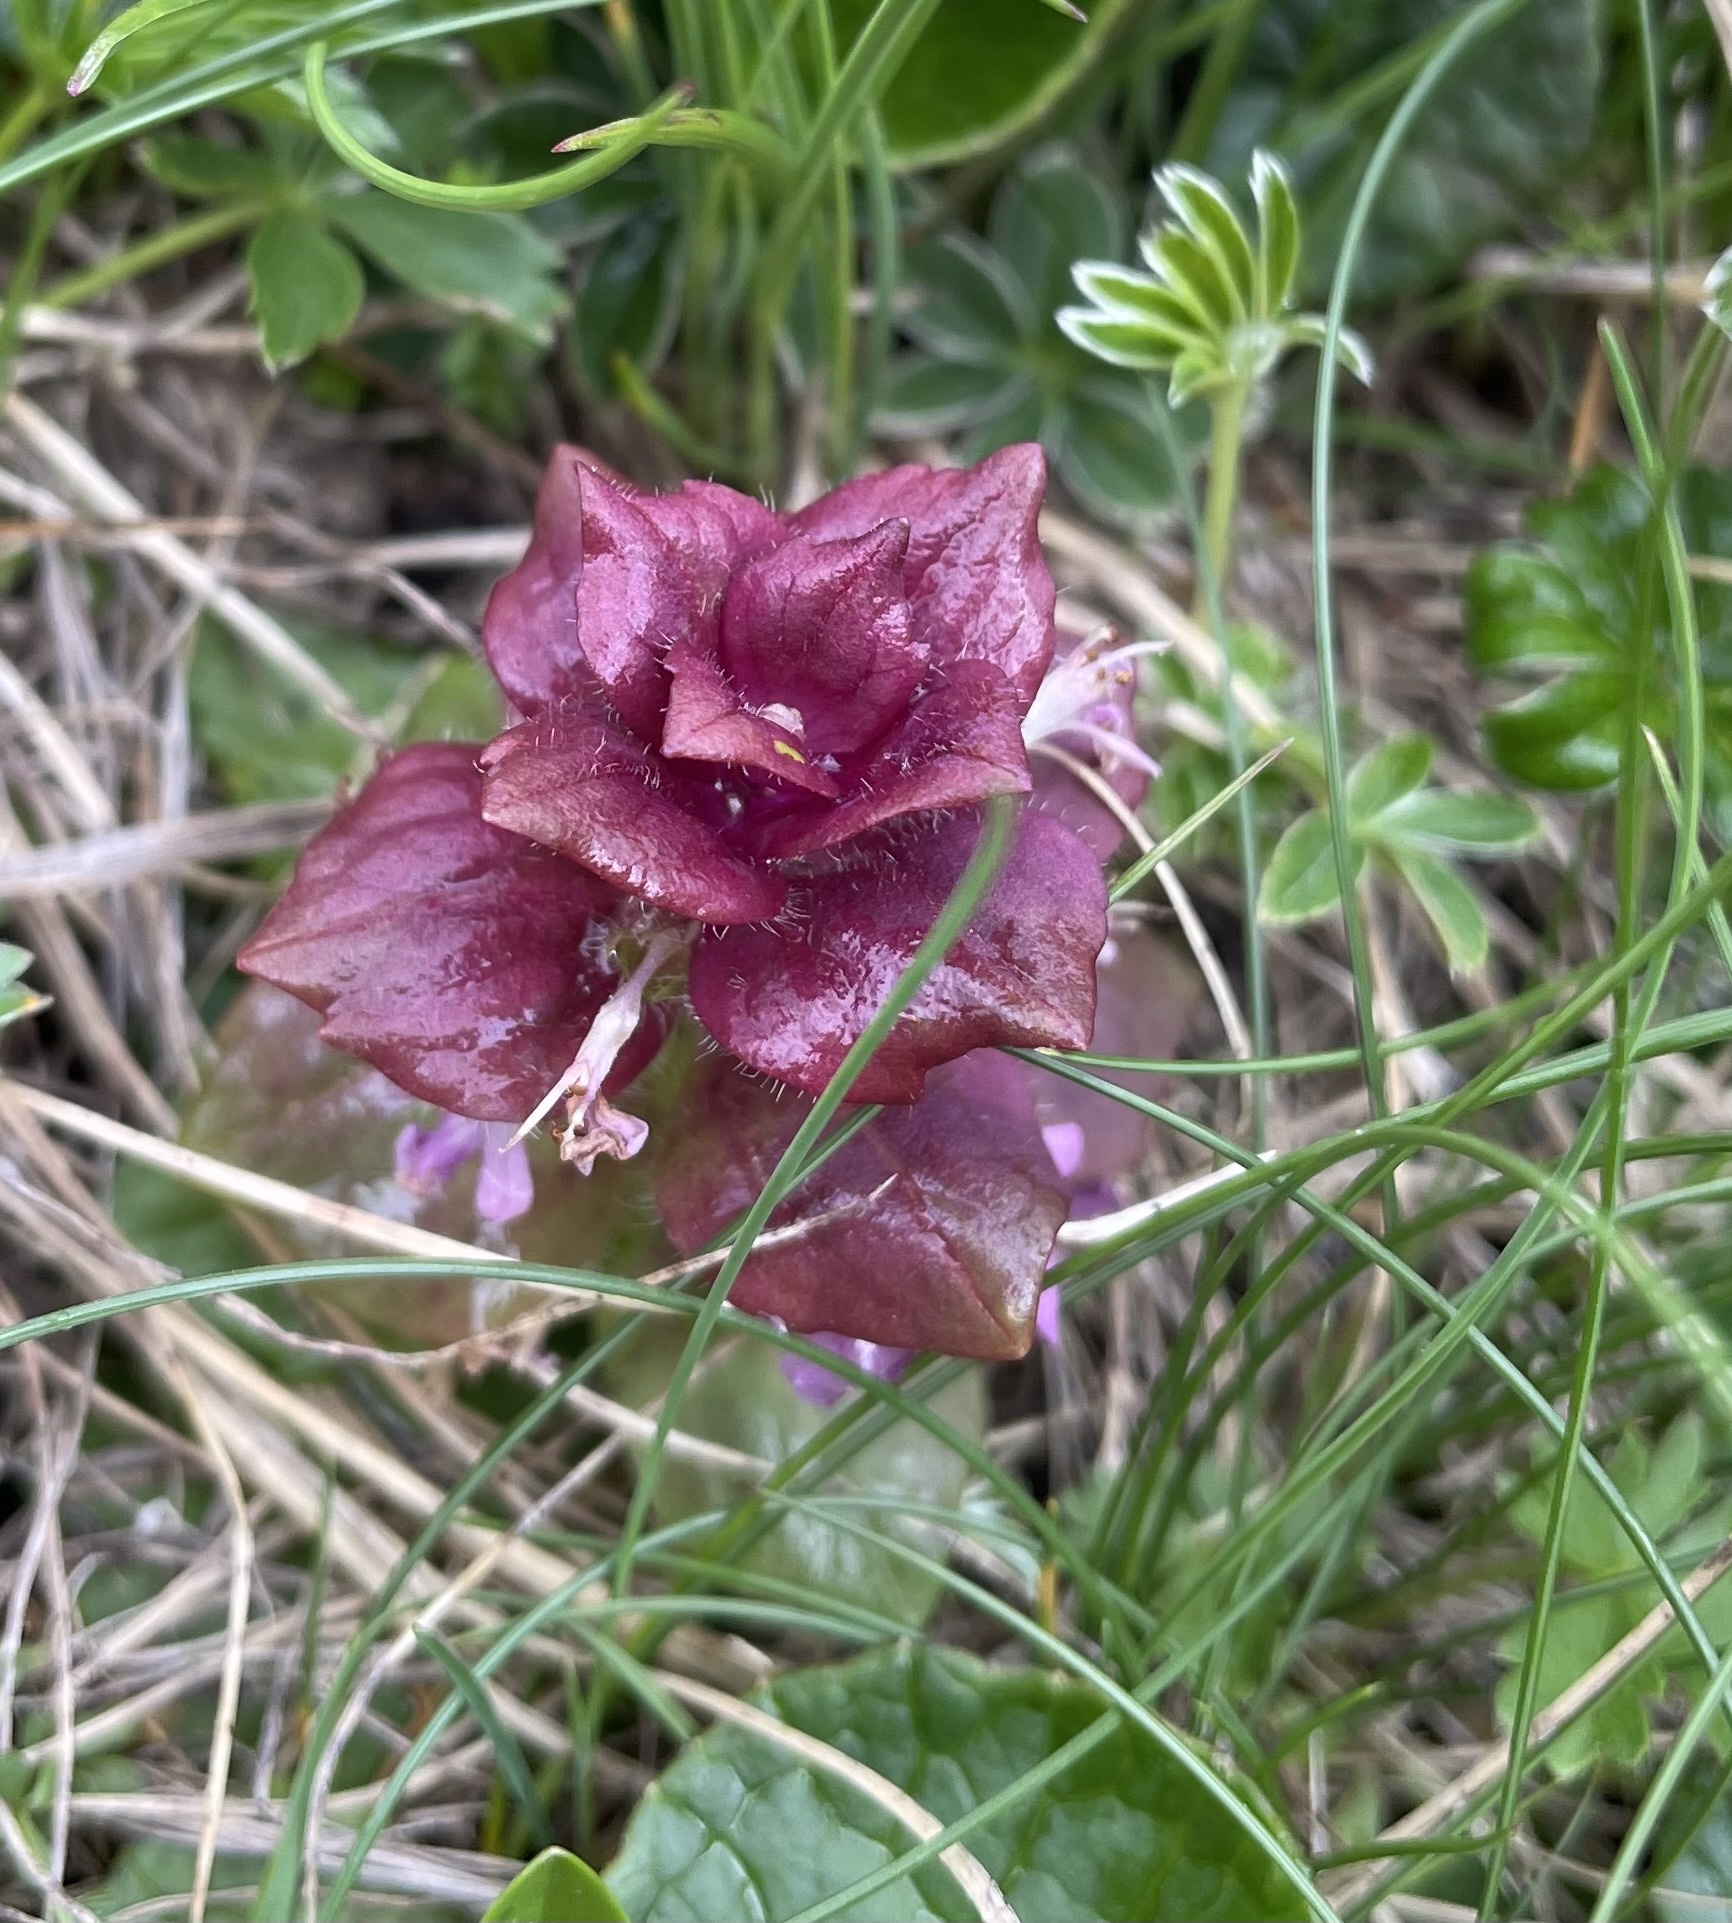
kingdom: Plantae
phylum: Tracheophyta
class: Magnoliopsida
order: Lamiales
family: Lamiaceae
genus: Ajuga
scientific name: Ajuga pyramidalis
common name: Pyramid bugle
